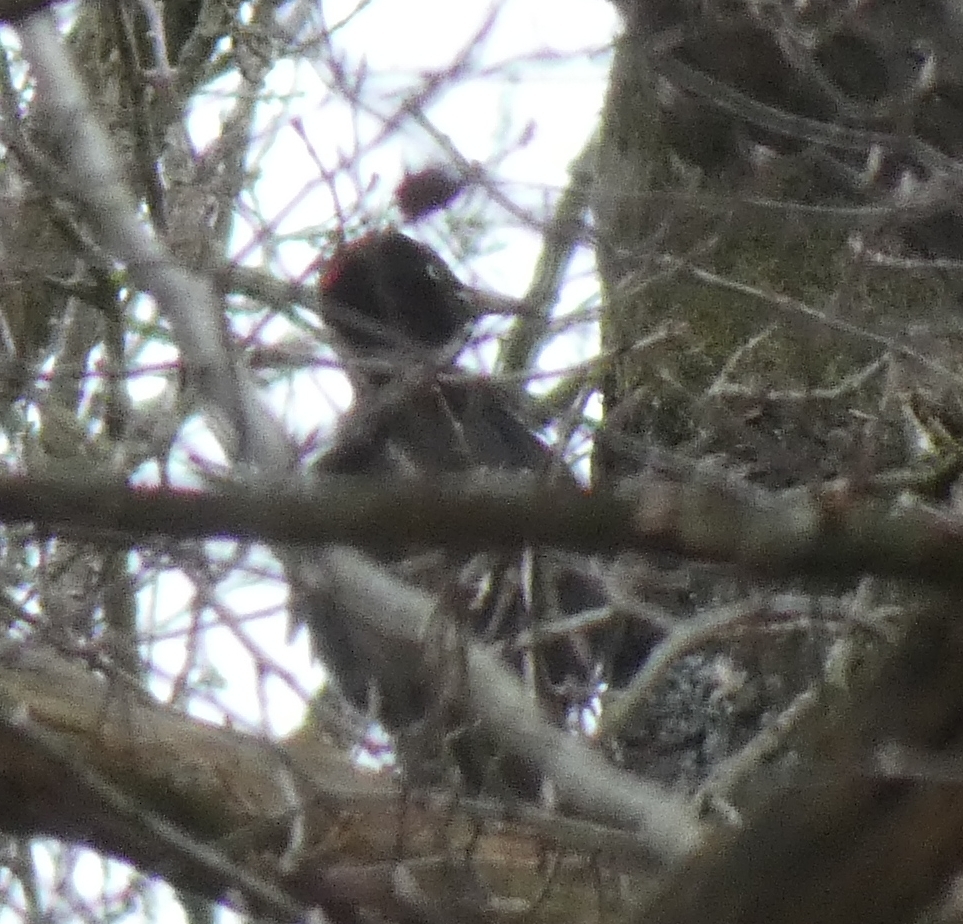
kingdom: Animalia
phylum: Chordata
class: Aves
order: Piciformes
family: Picidae
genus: Dryocopus
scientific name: Dryocopus martius
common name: Black woodpecker
